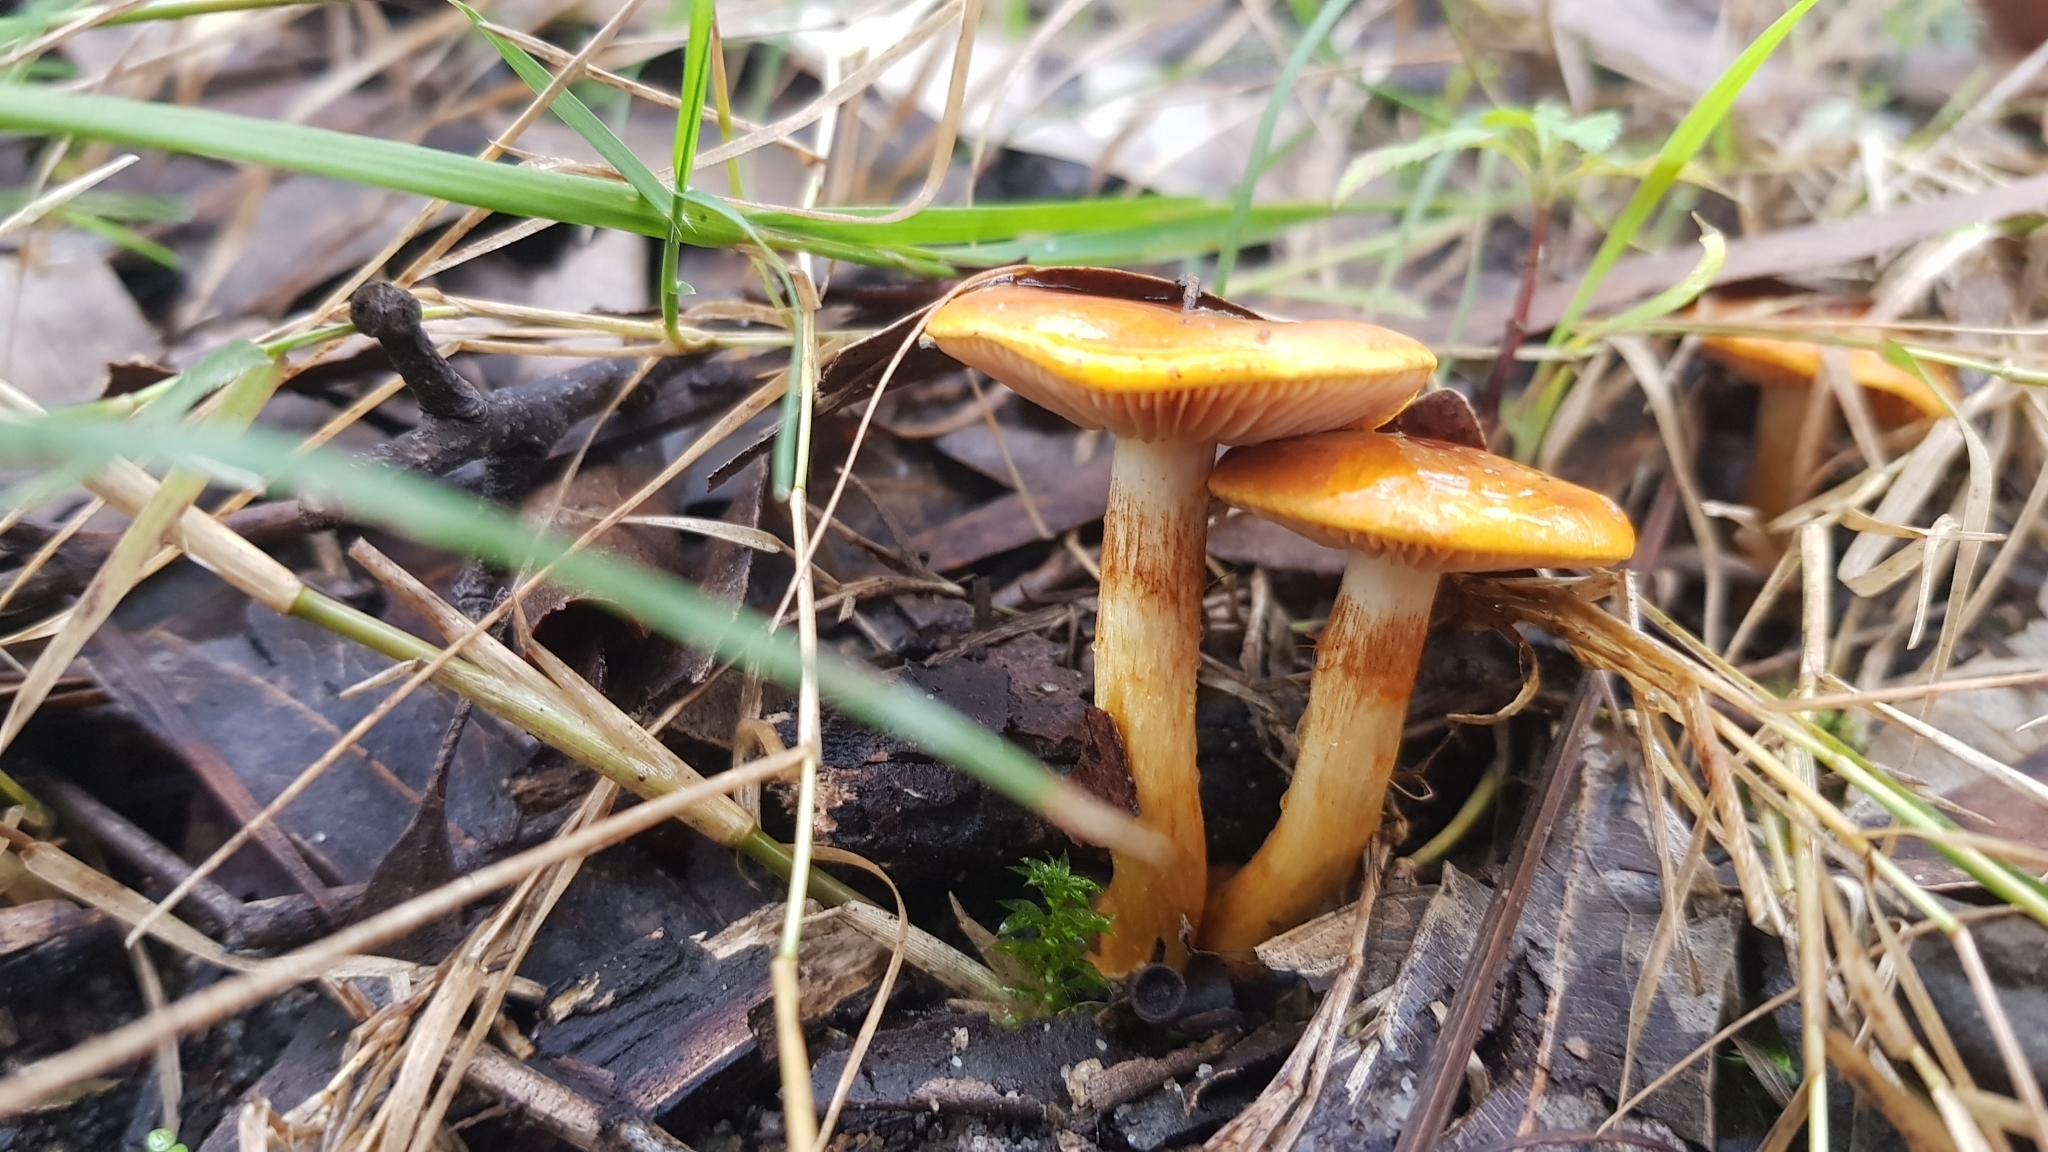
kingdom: Fungi
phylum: Basidiomycota
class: Agaricomycetes
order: Agaricales
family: Cortinariaceae
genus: Cortinarius
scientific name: Cortinarius sinapicolor
